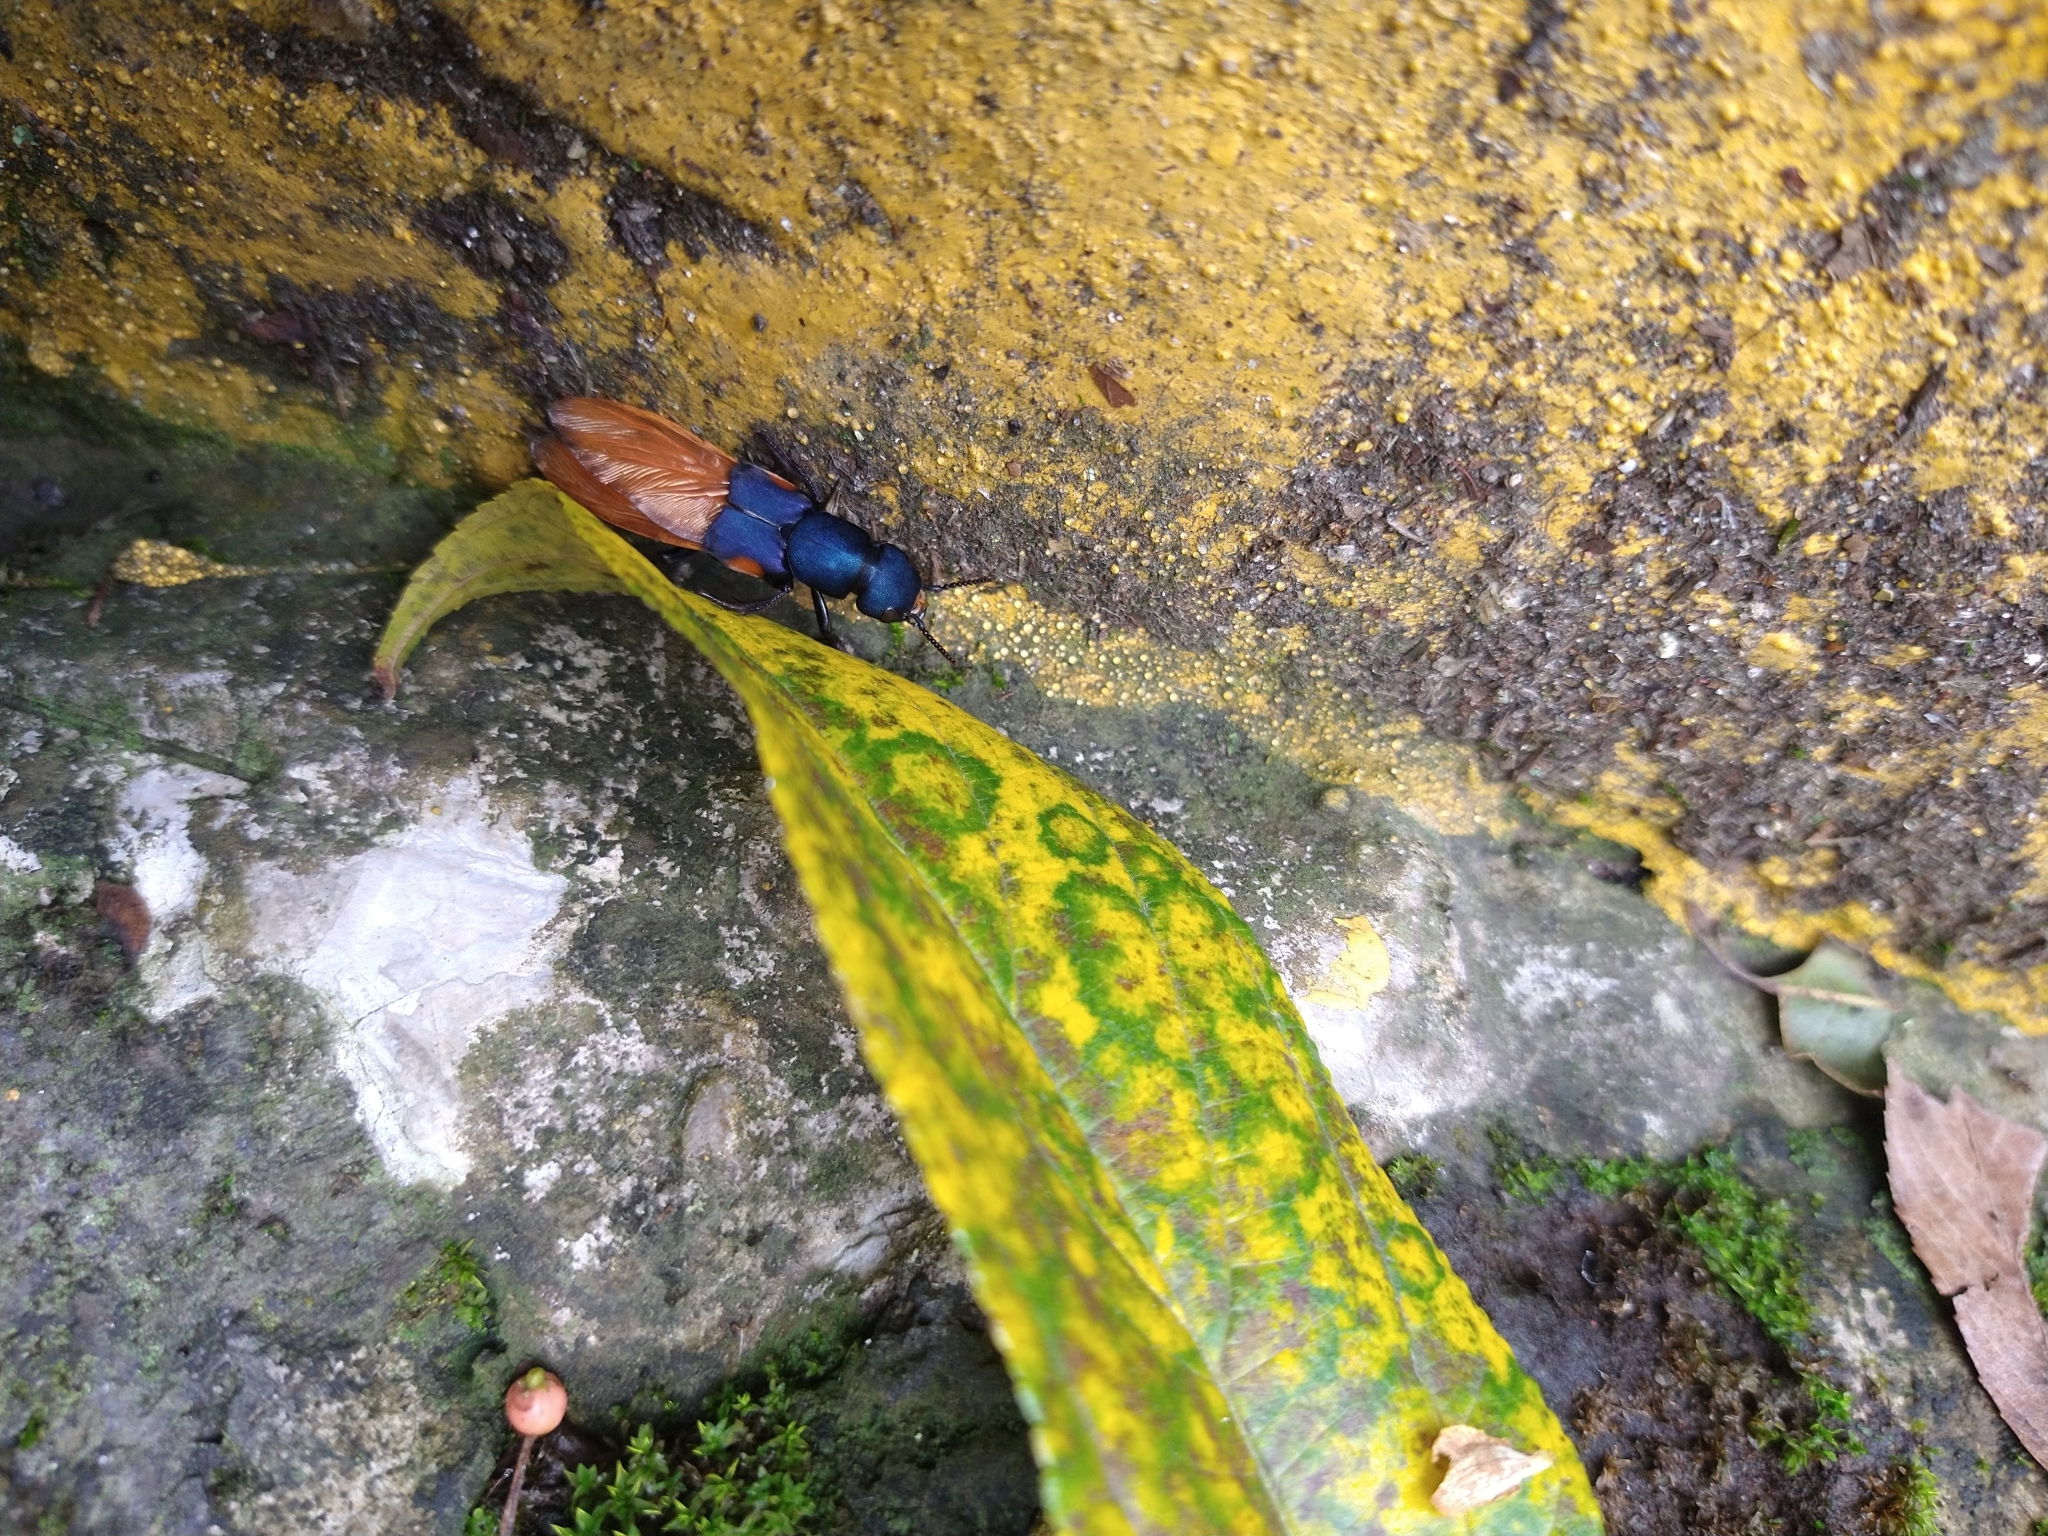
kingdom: Animalia
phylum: Arthropoda
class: Insecta
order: Coleoptera
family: Staphylinidae
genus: Platydracus
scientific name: Platydracus fulvomaculatus
